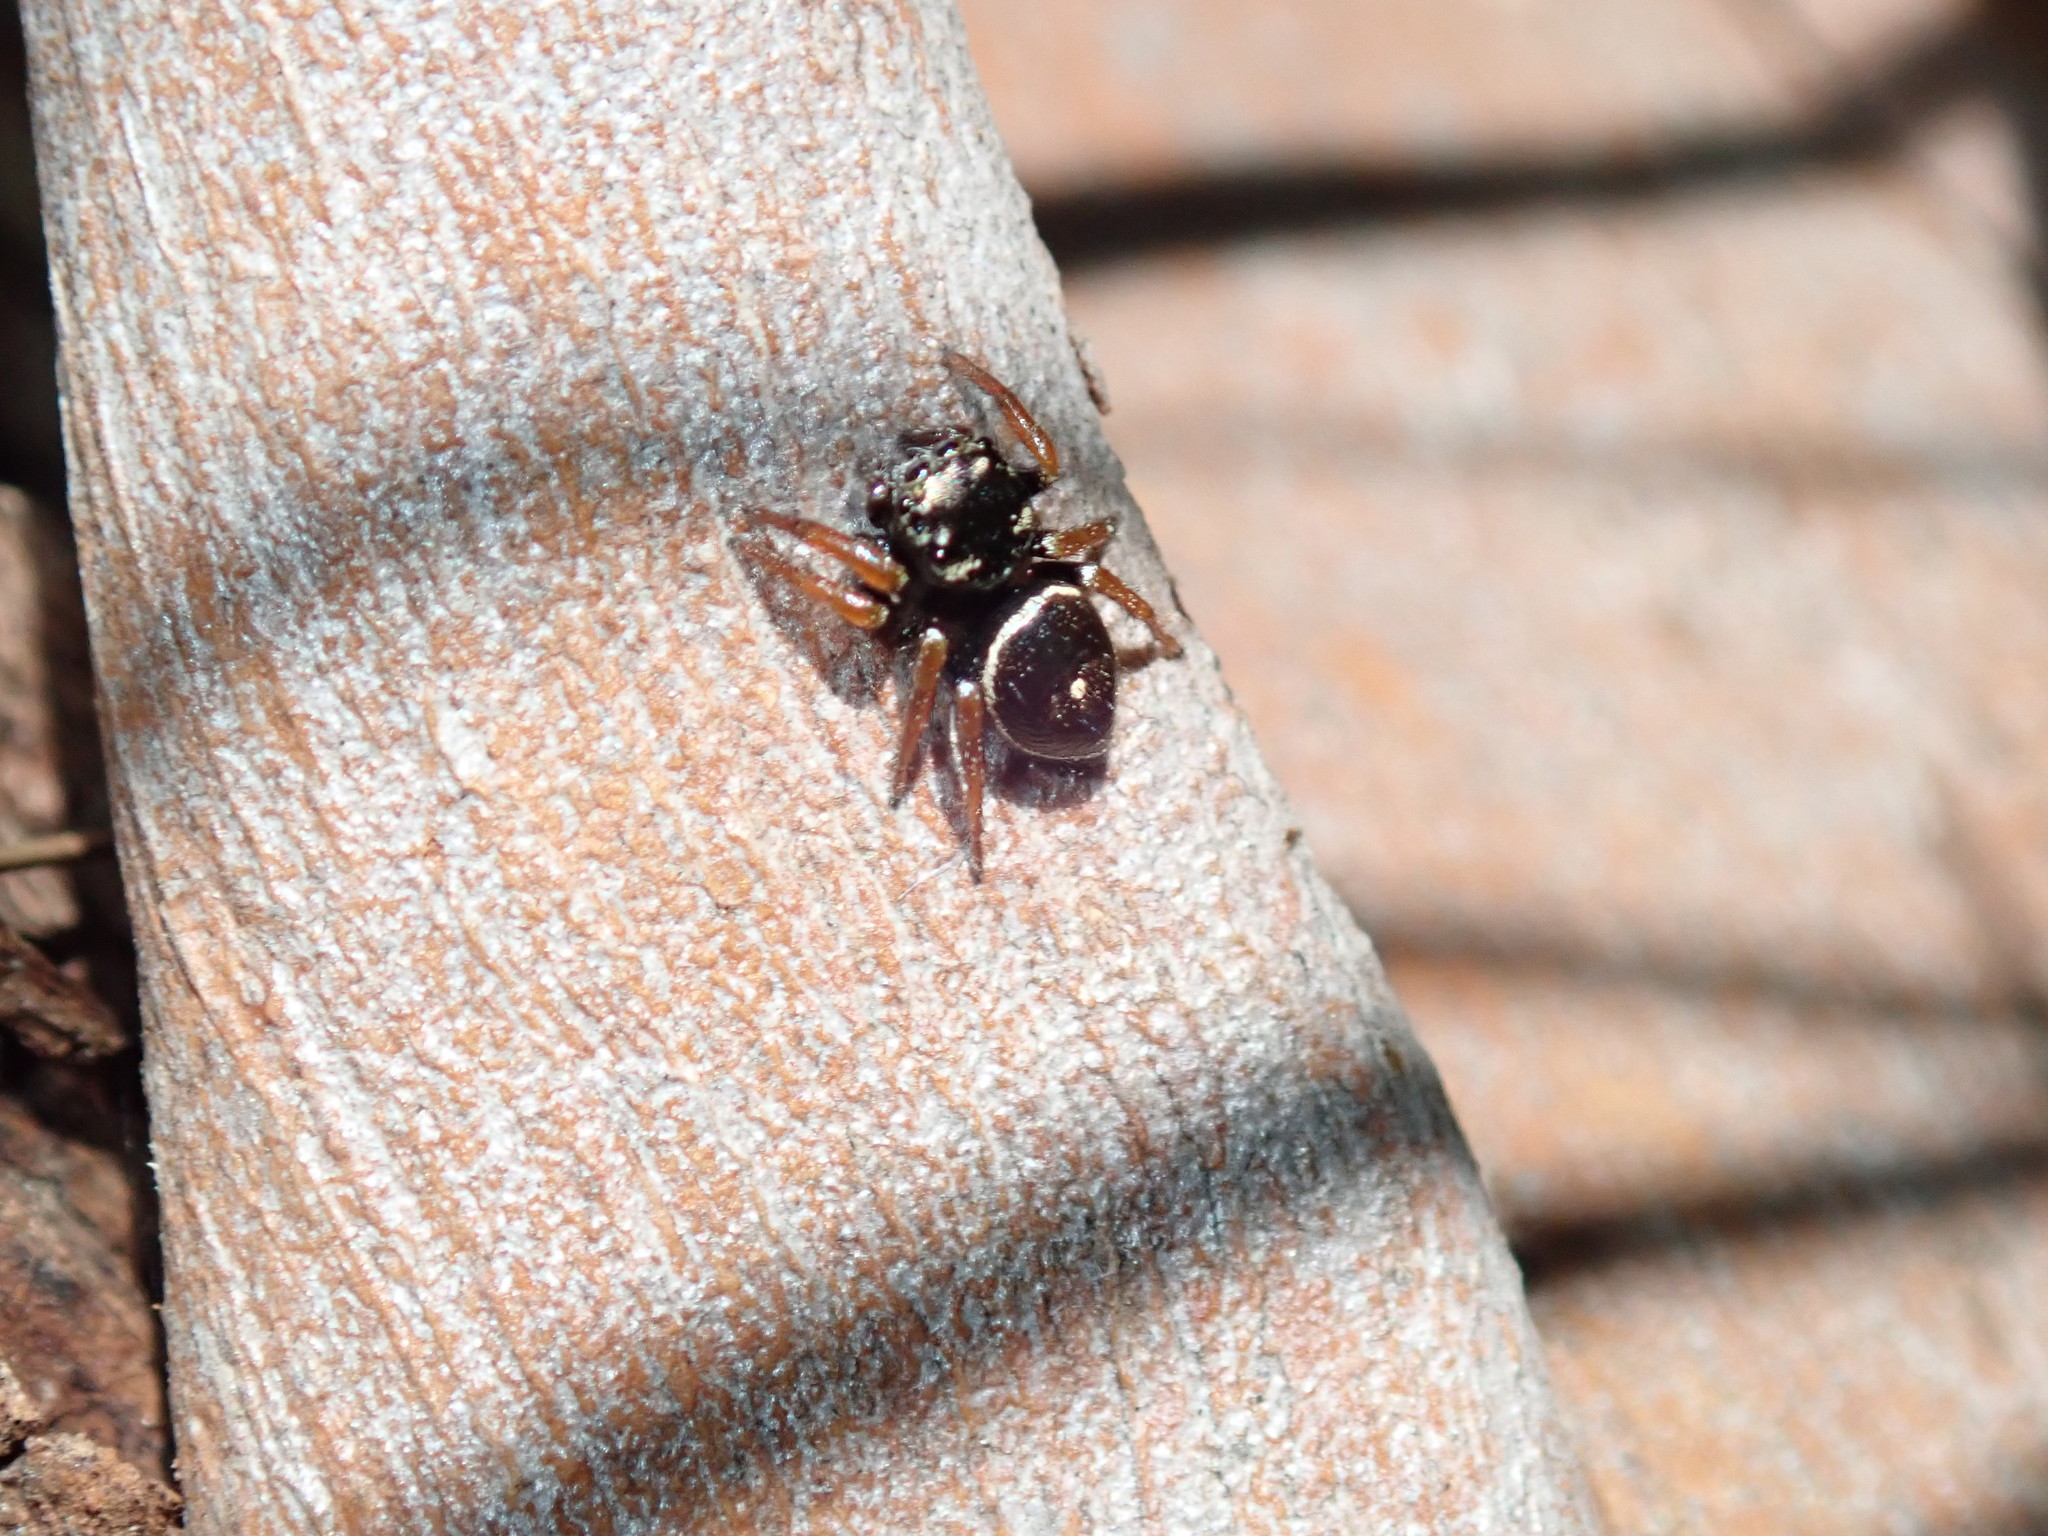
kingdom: Animalia
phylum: Arthropoda
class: Arachnida
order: Araneae
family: Salticidae
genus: Zenodorus
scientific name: Zenodorus orbiculatus
